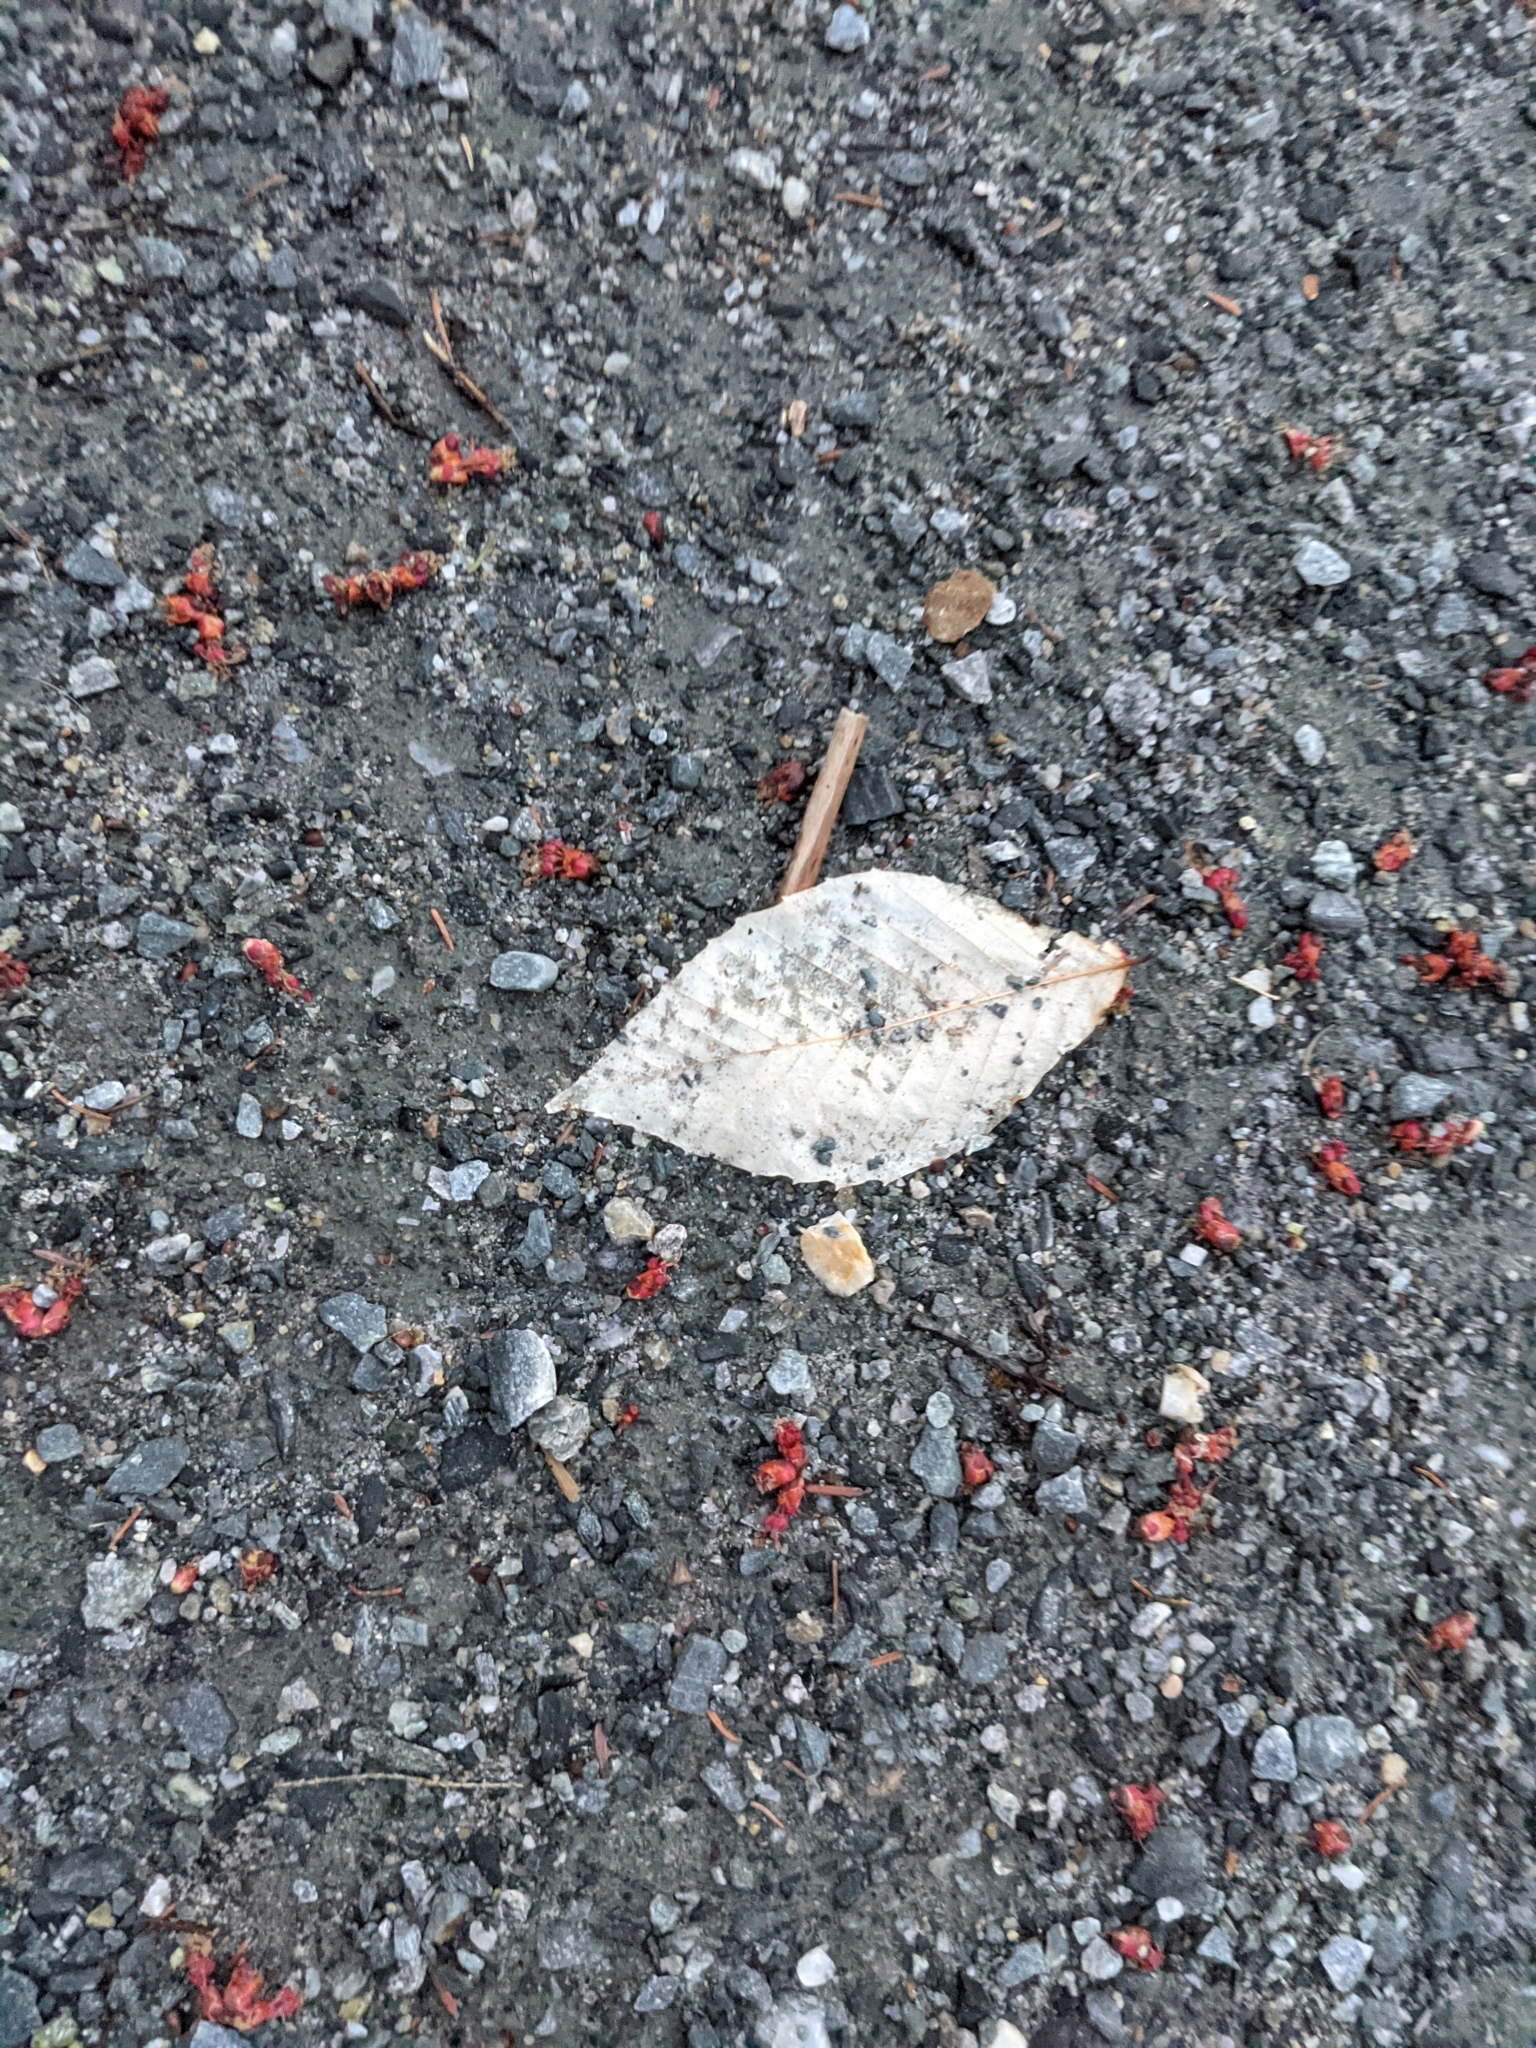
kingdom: Plantae
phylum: Tracheophyta
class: Magnoliopsida
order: Fagales
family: Fagaceae
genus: Fagus
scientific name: Fagus grandifolia
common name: American beech
